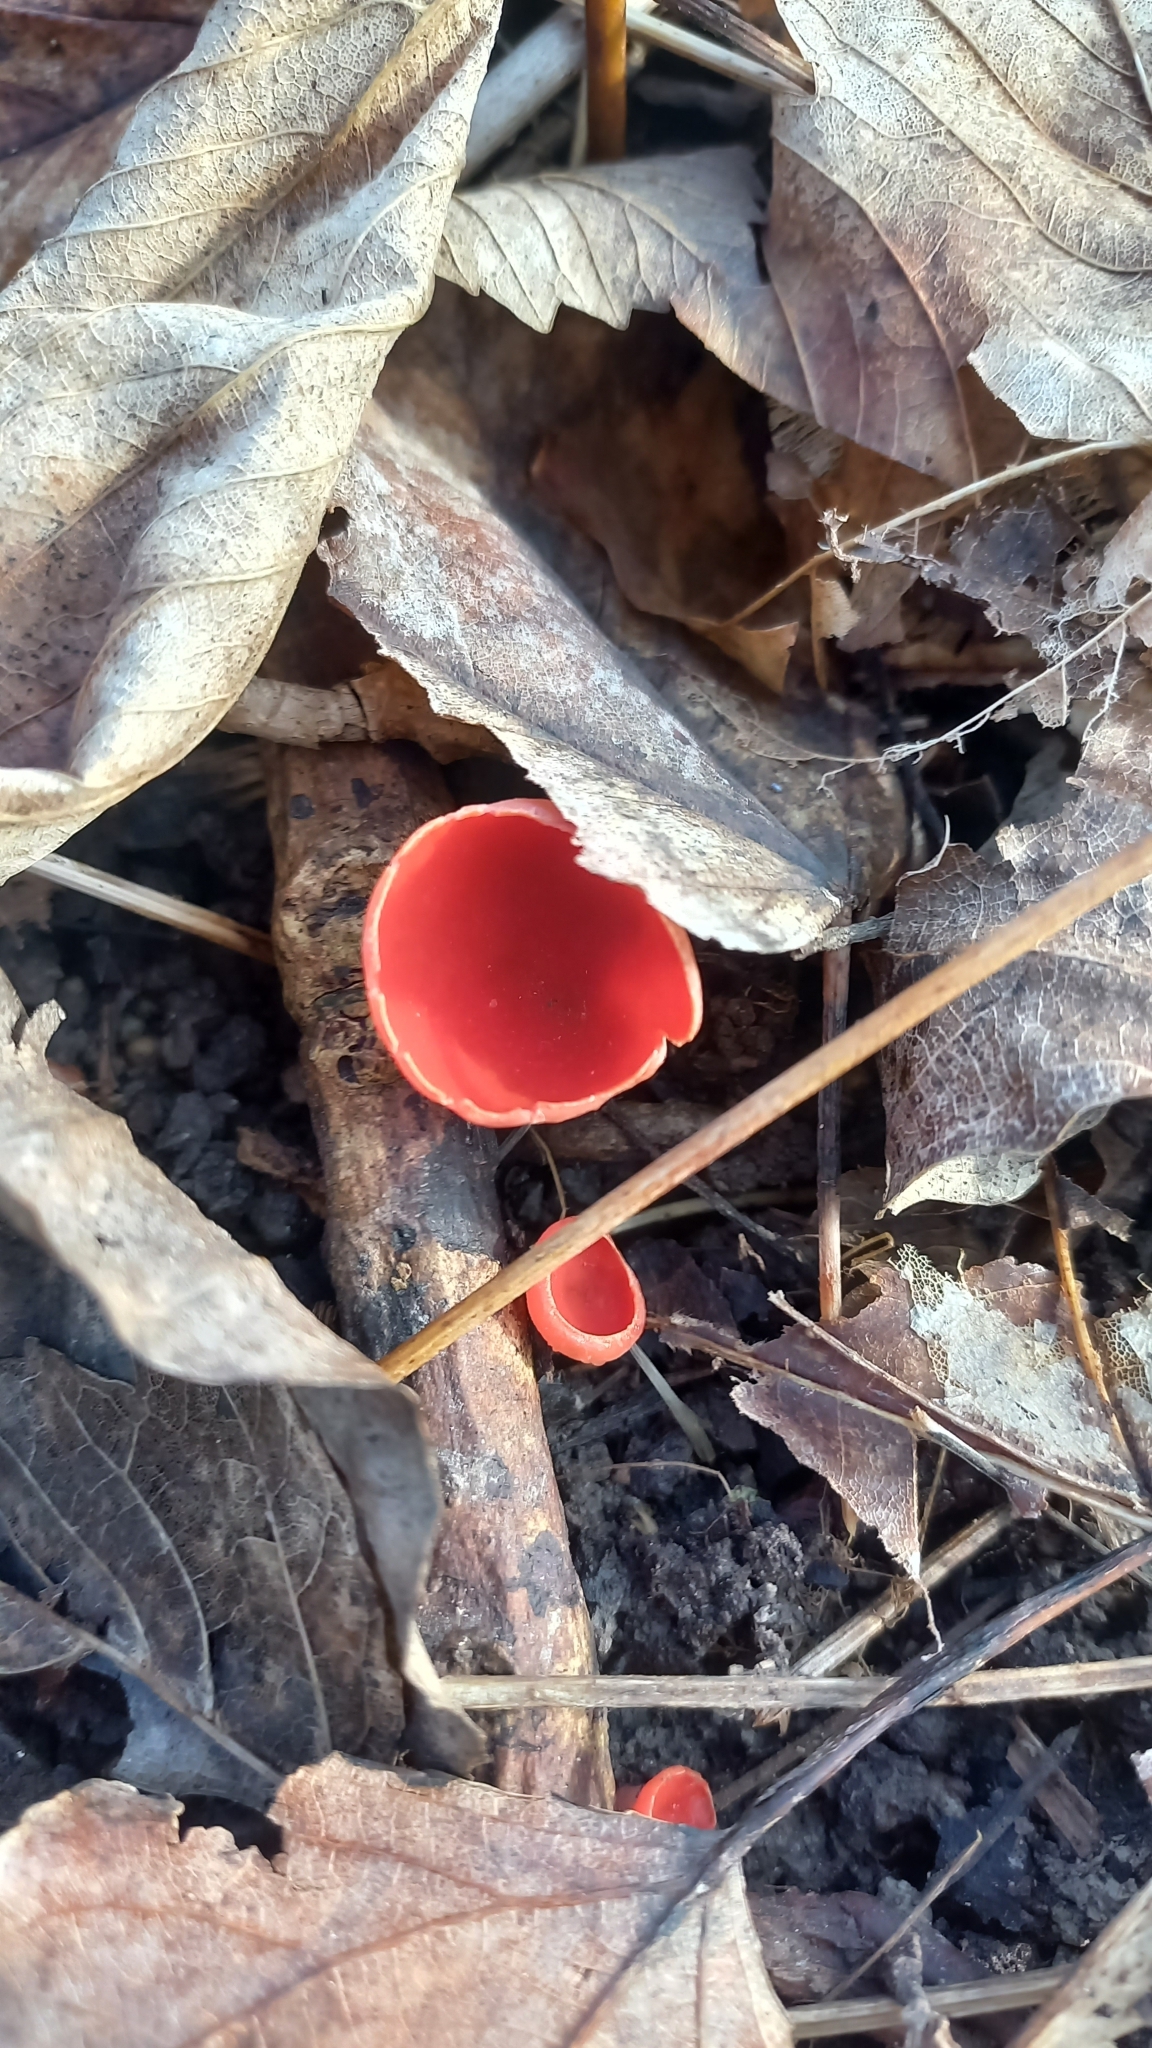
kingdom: Fungi
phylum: Ascomycota
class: Pezizomycetes
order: Pezizales
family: Sarcoscyphaceae
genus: Sarcoscypha
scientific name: Sarcoscypha
